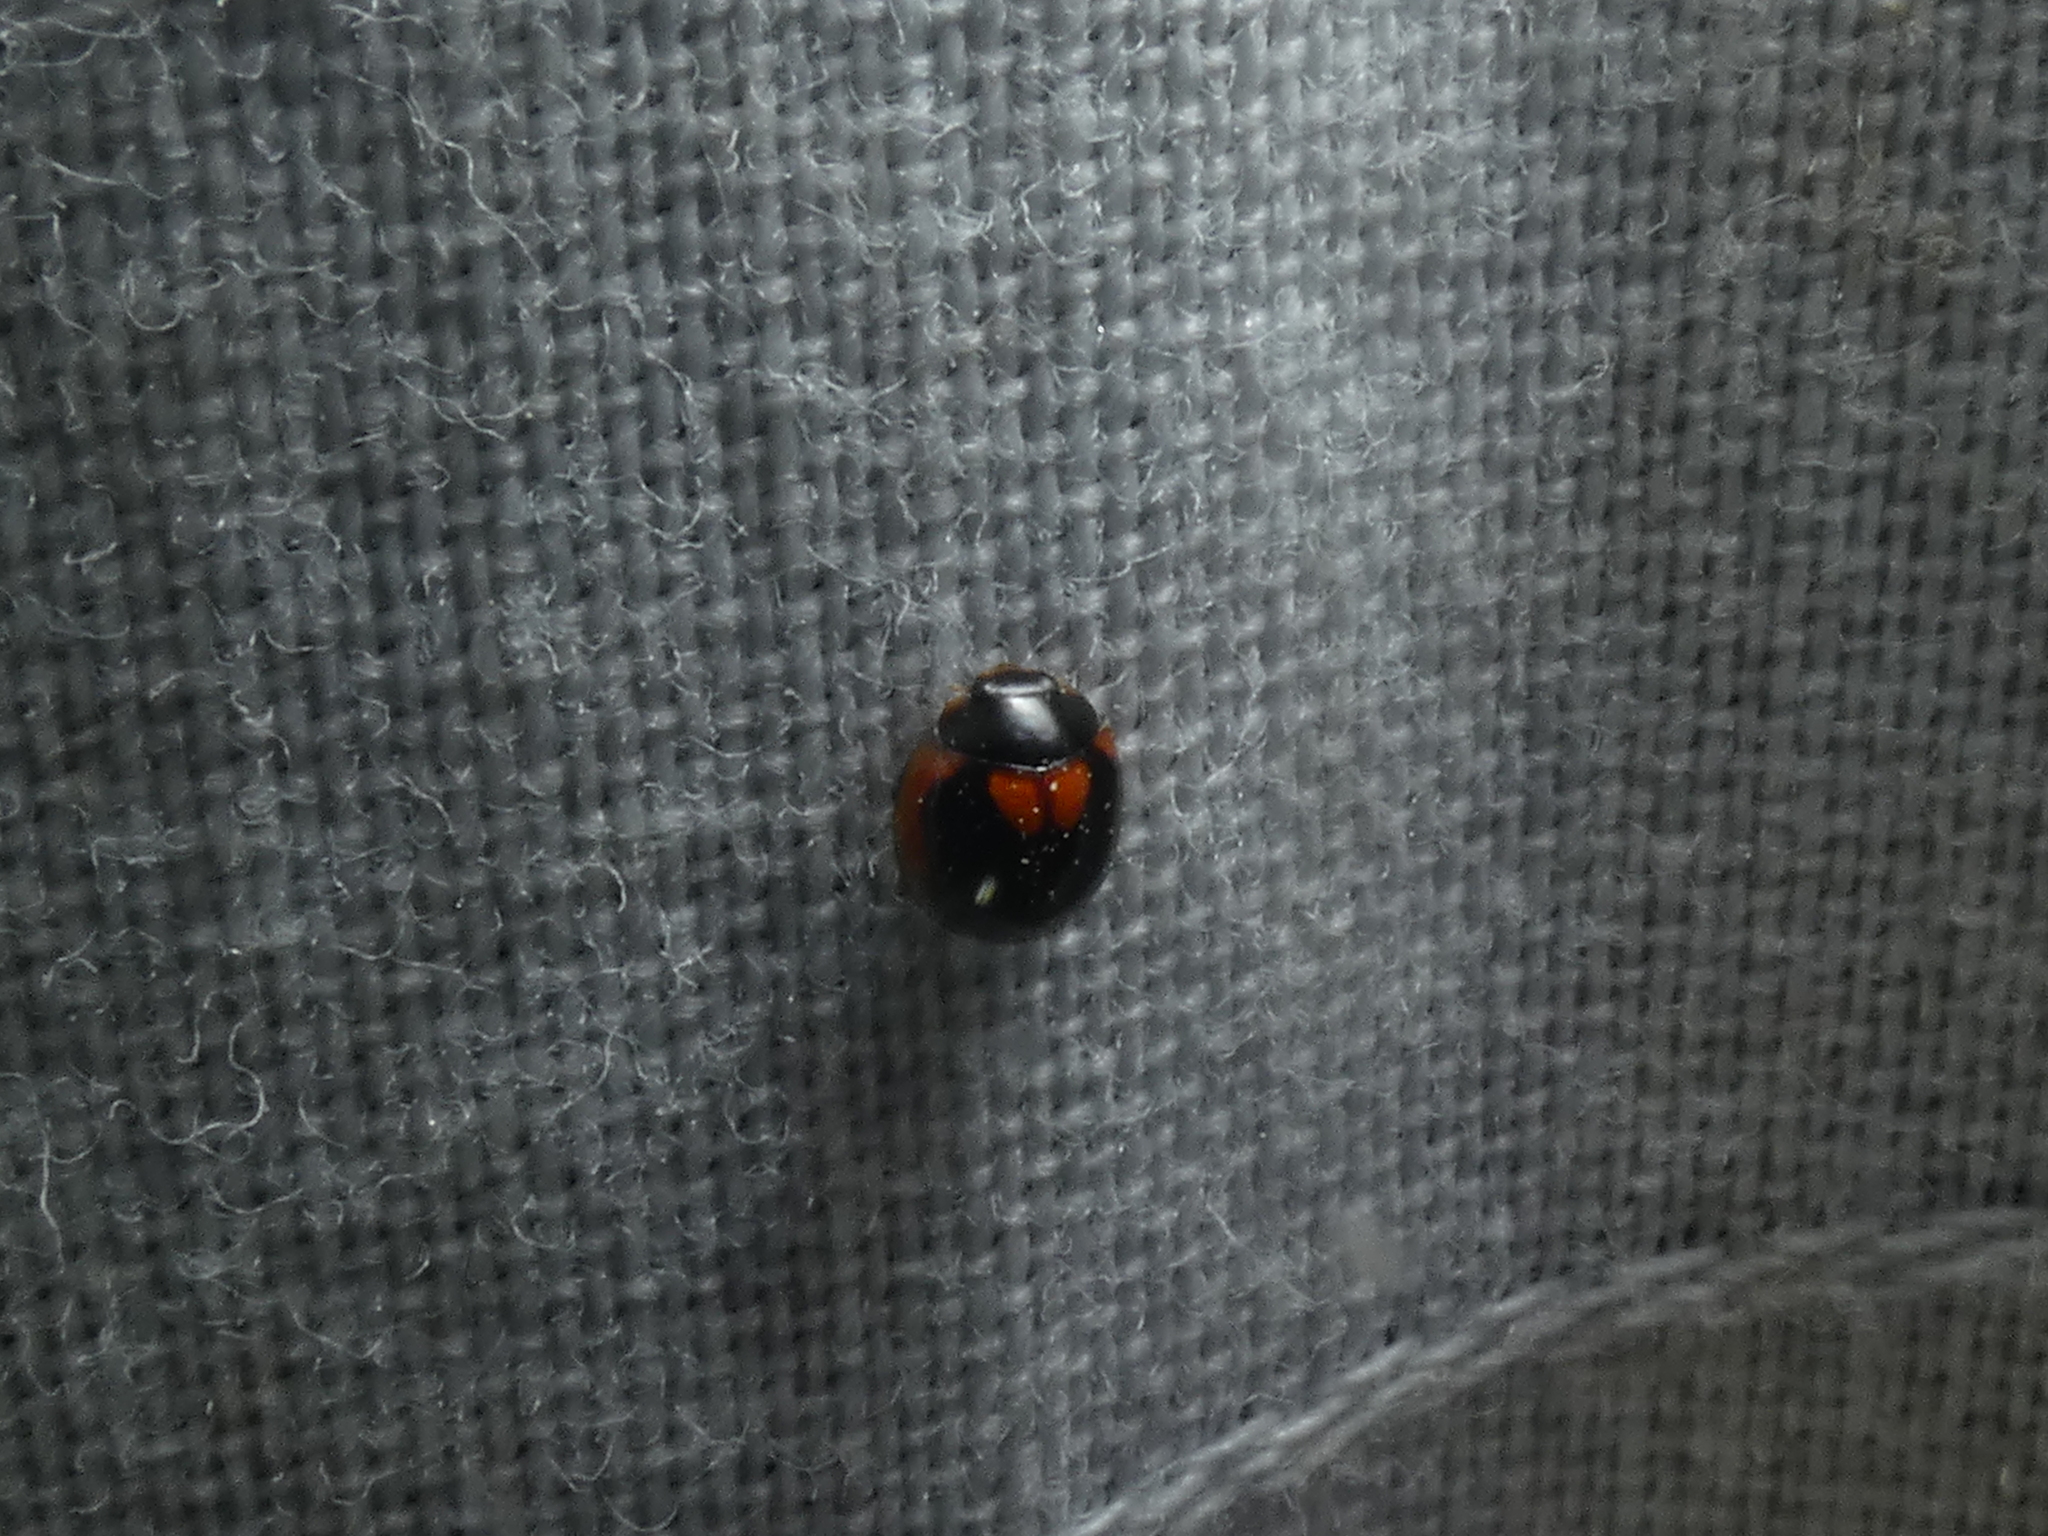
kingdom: Animalia
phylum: Arthropoda
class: Insecta
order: Coleoptera
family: Coccinellidae
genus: Exochomus
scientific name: Exochomus marginipennis
